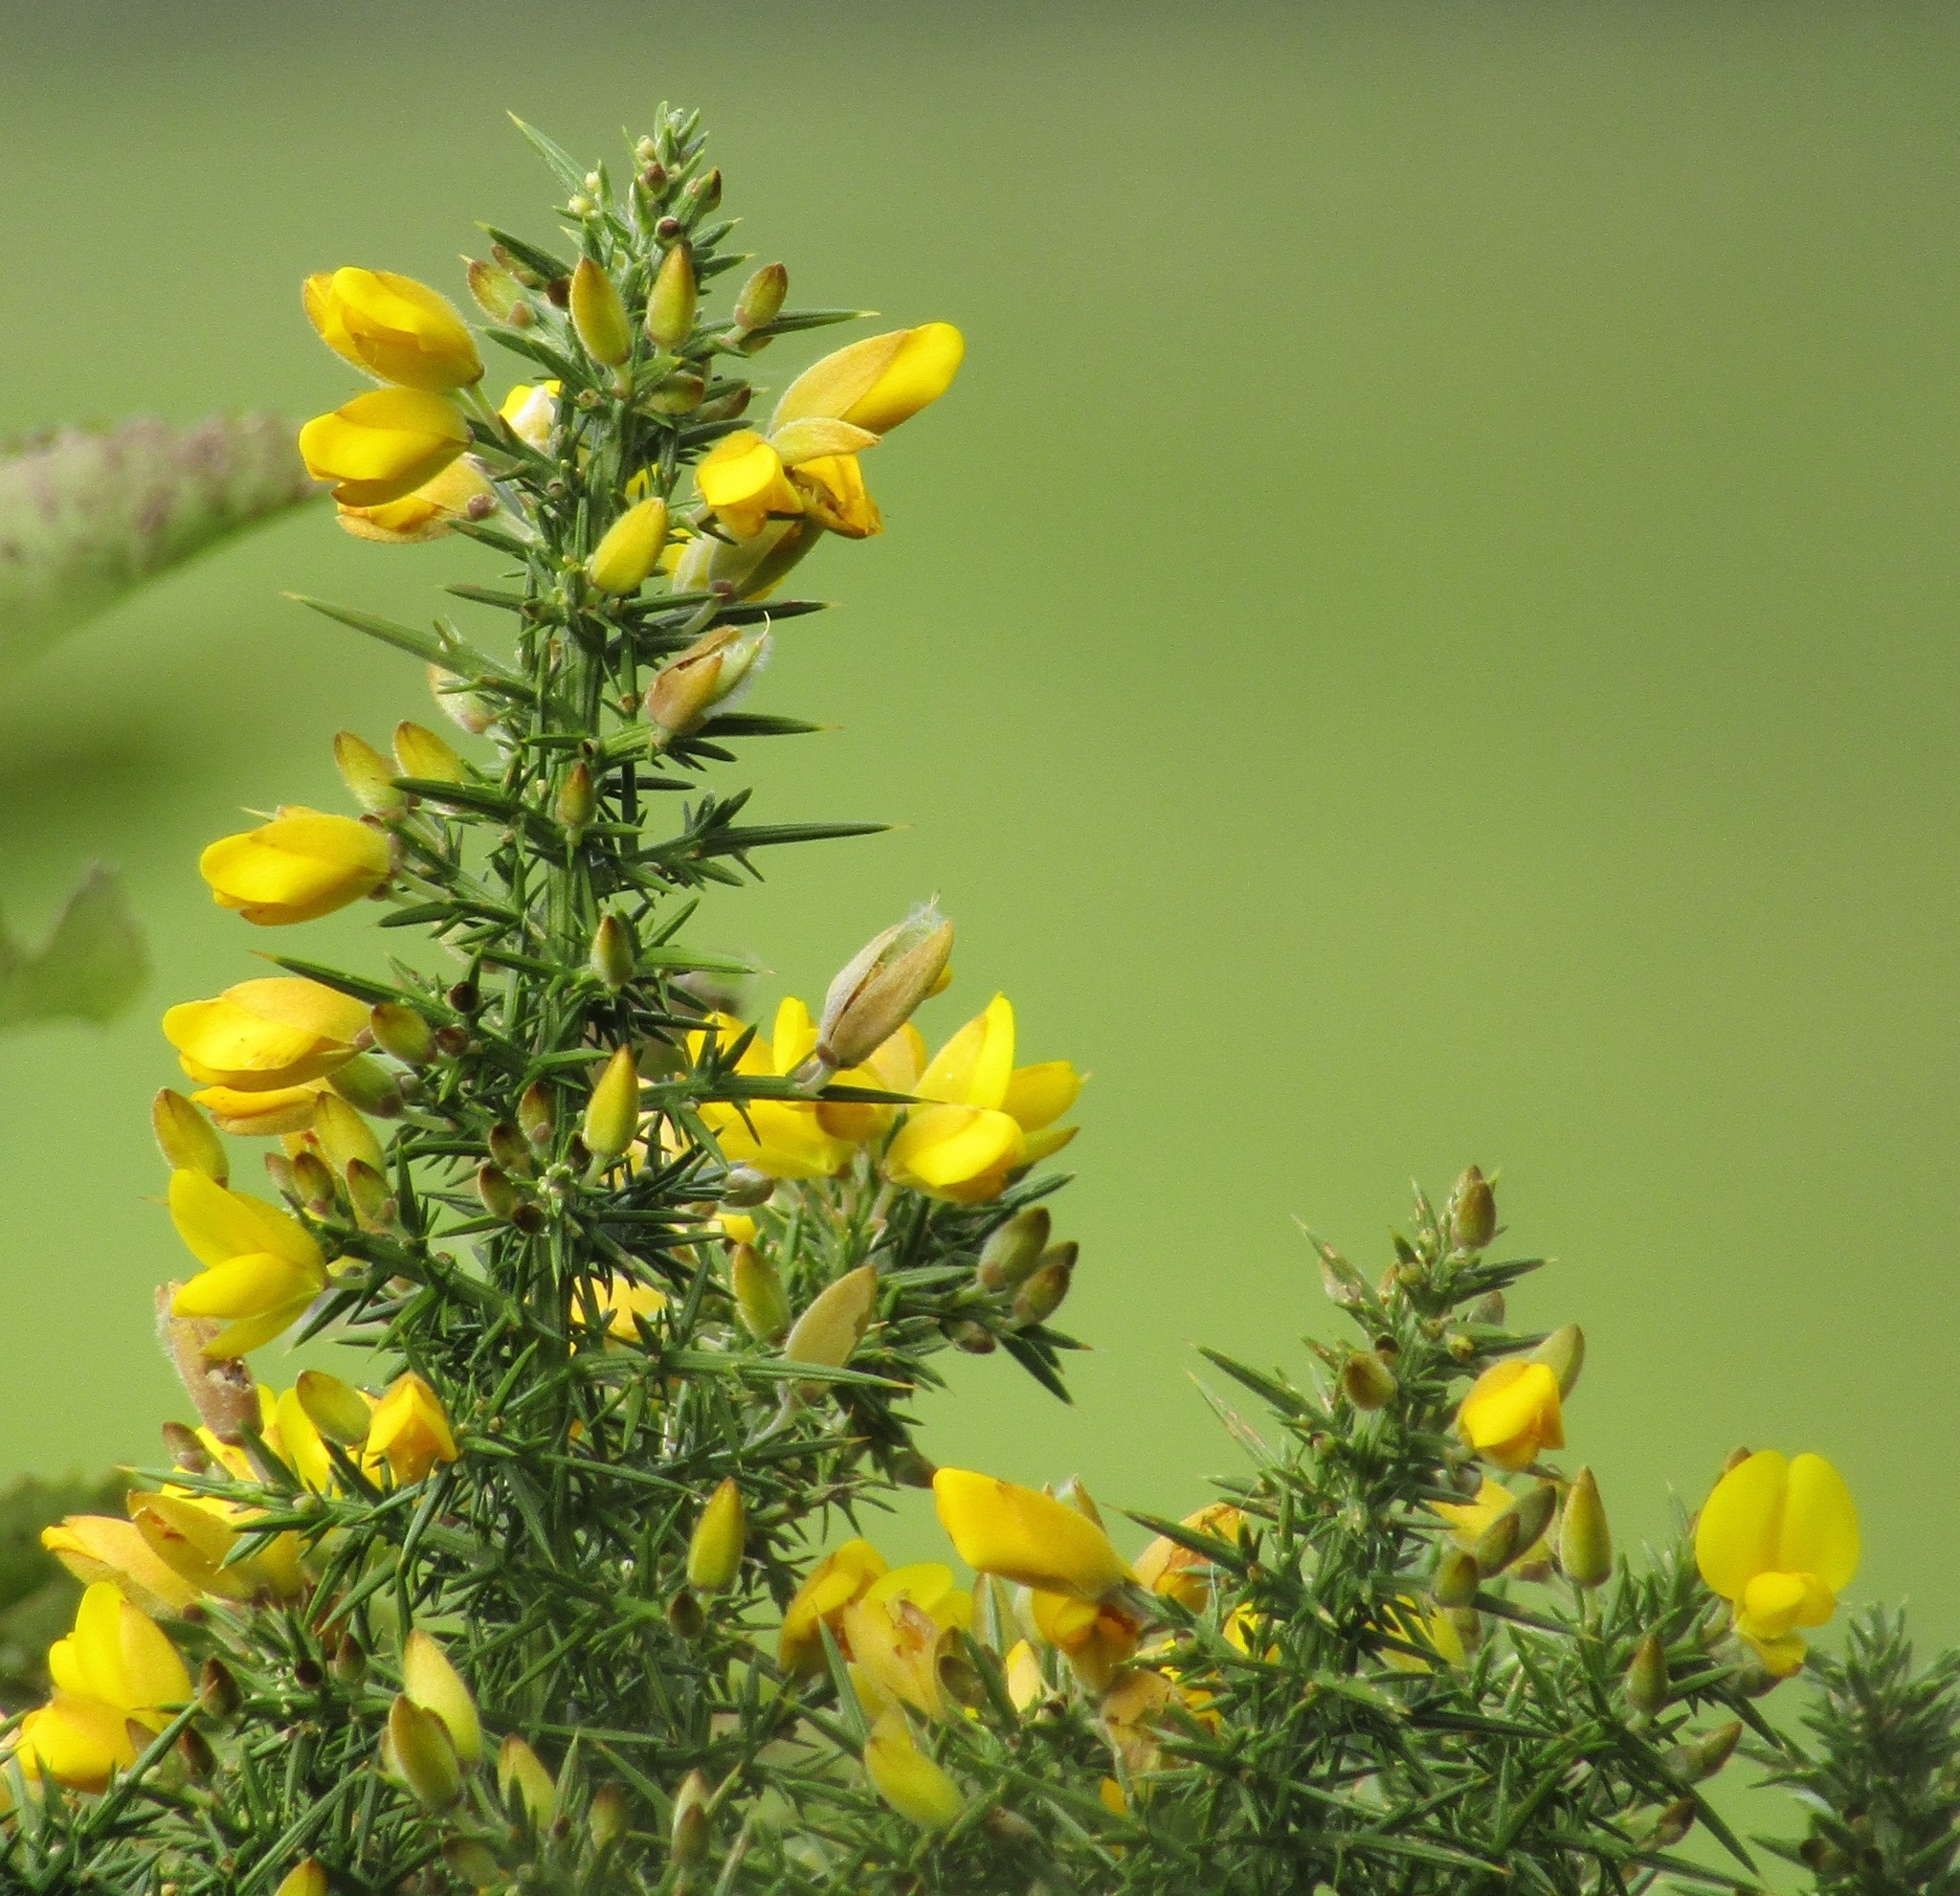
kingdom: Plantae
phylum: Tracheophyta
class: Magnoliopsida
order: Fabales
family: Fabaceae
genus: Ulex
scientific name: Ulex europaeus
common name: Common gorse
